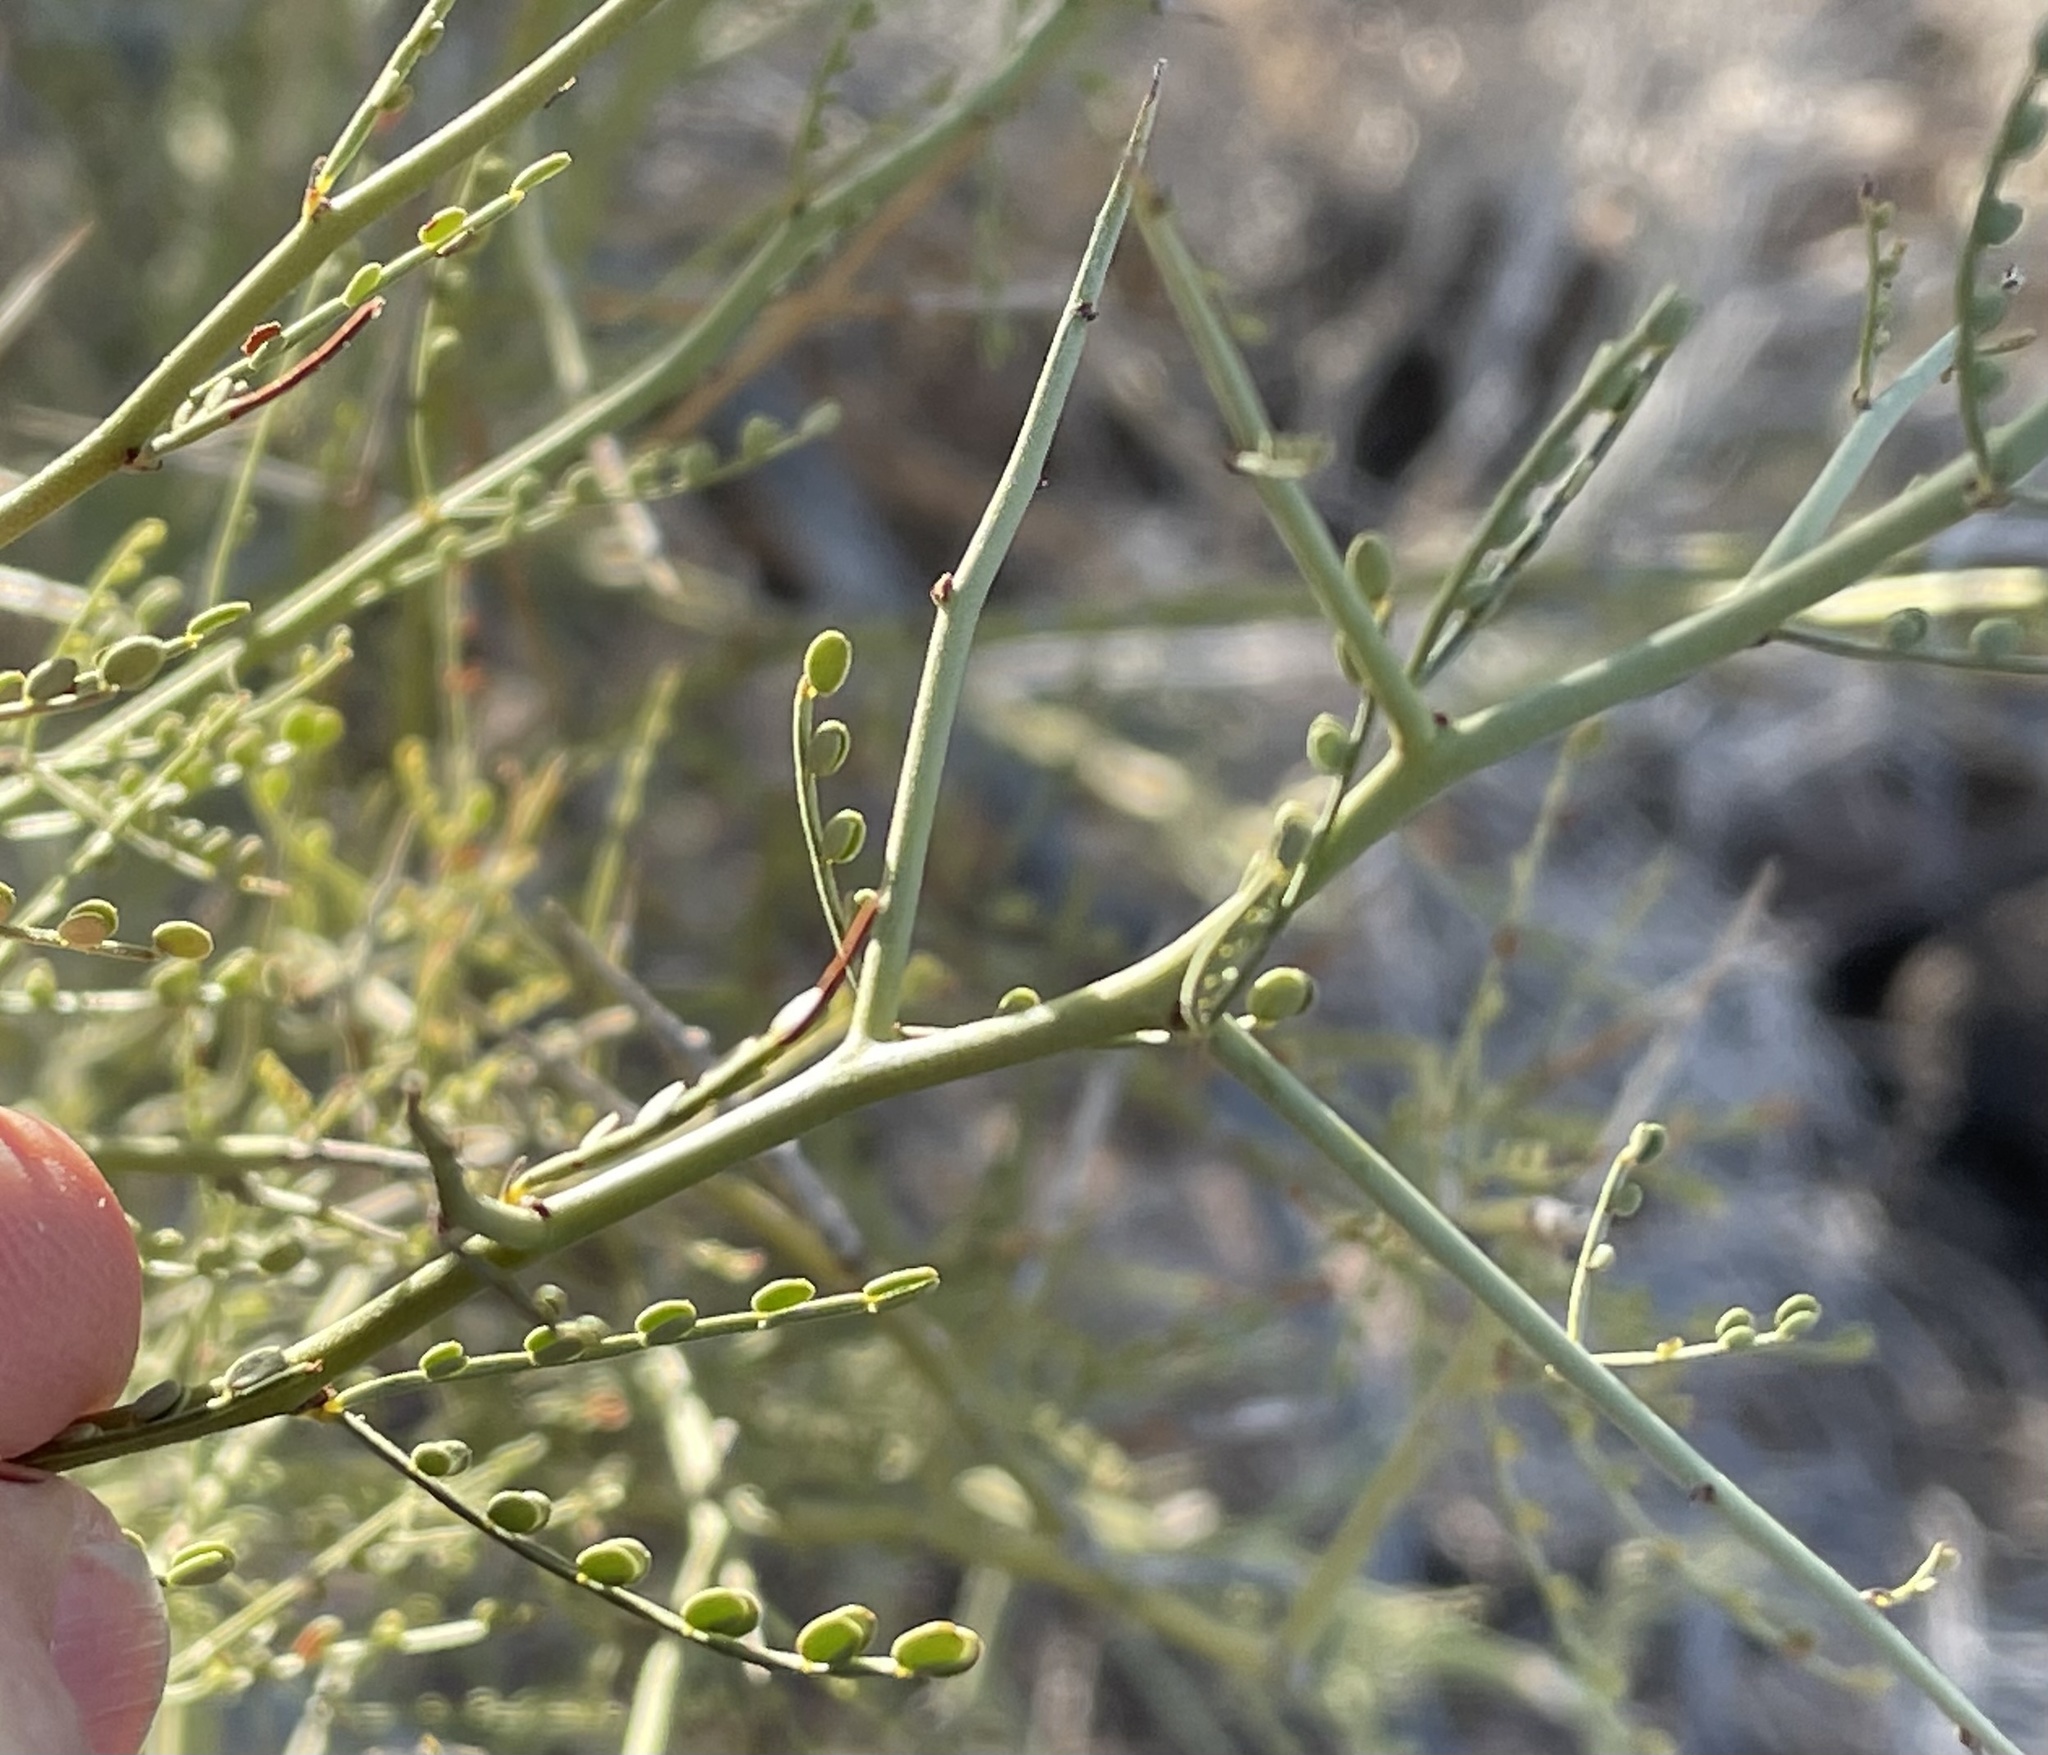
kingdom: Plantae
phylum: Tracheophyta
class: Magnoliopsida
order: Fabales
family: Fabaceae
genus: Parkinsonia
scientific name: Parkinsonia microphylla
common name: Yellow paloverde
